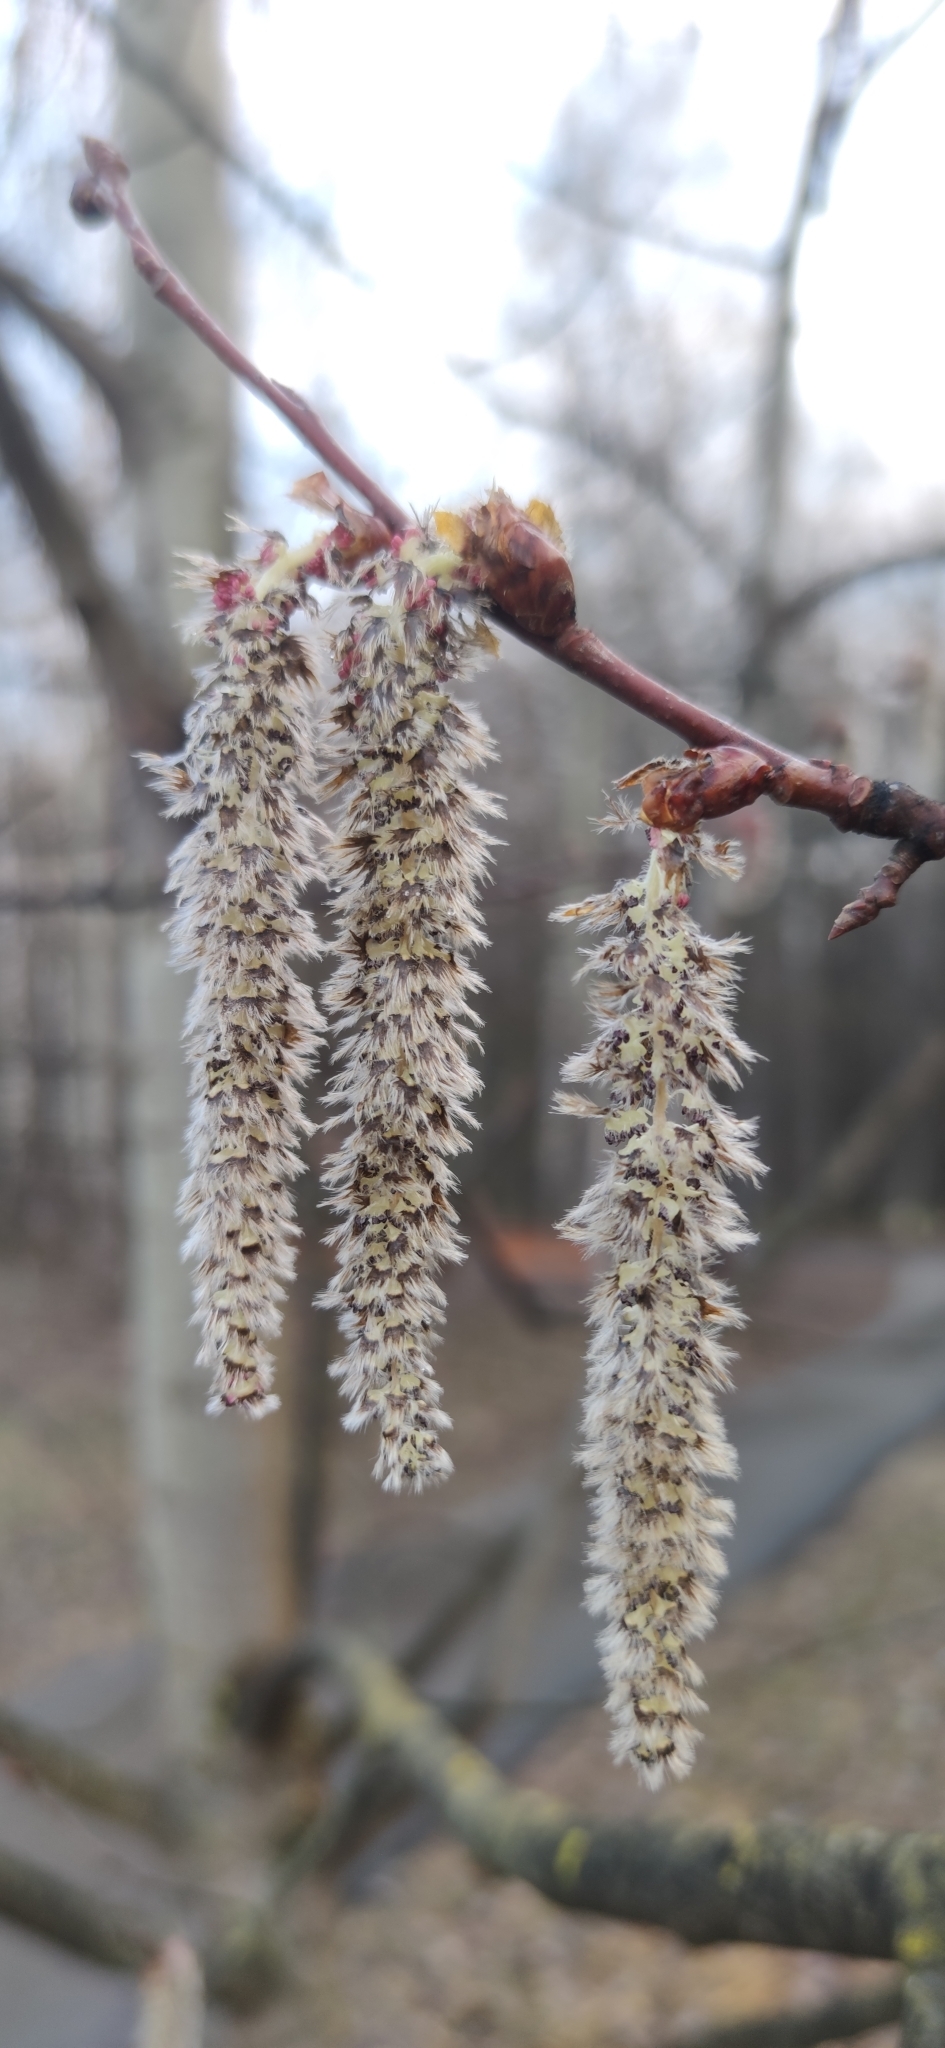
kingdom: Plantae
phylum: Tracheophyta
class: Magnoliopsida
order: Malpighiales
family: Salicaceae
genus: Populus
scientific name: Populus tremula
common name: European aspen
